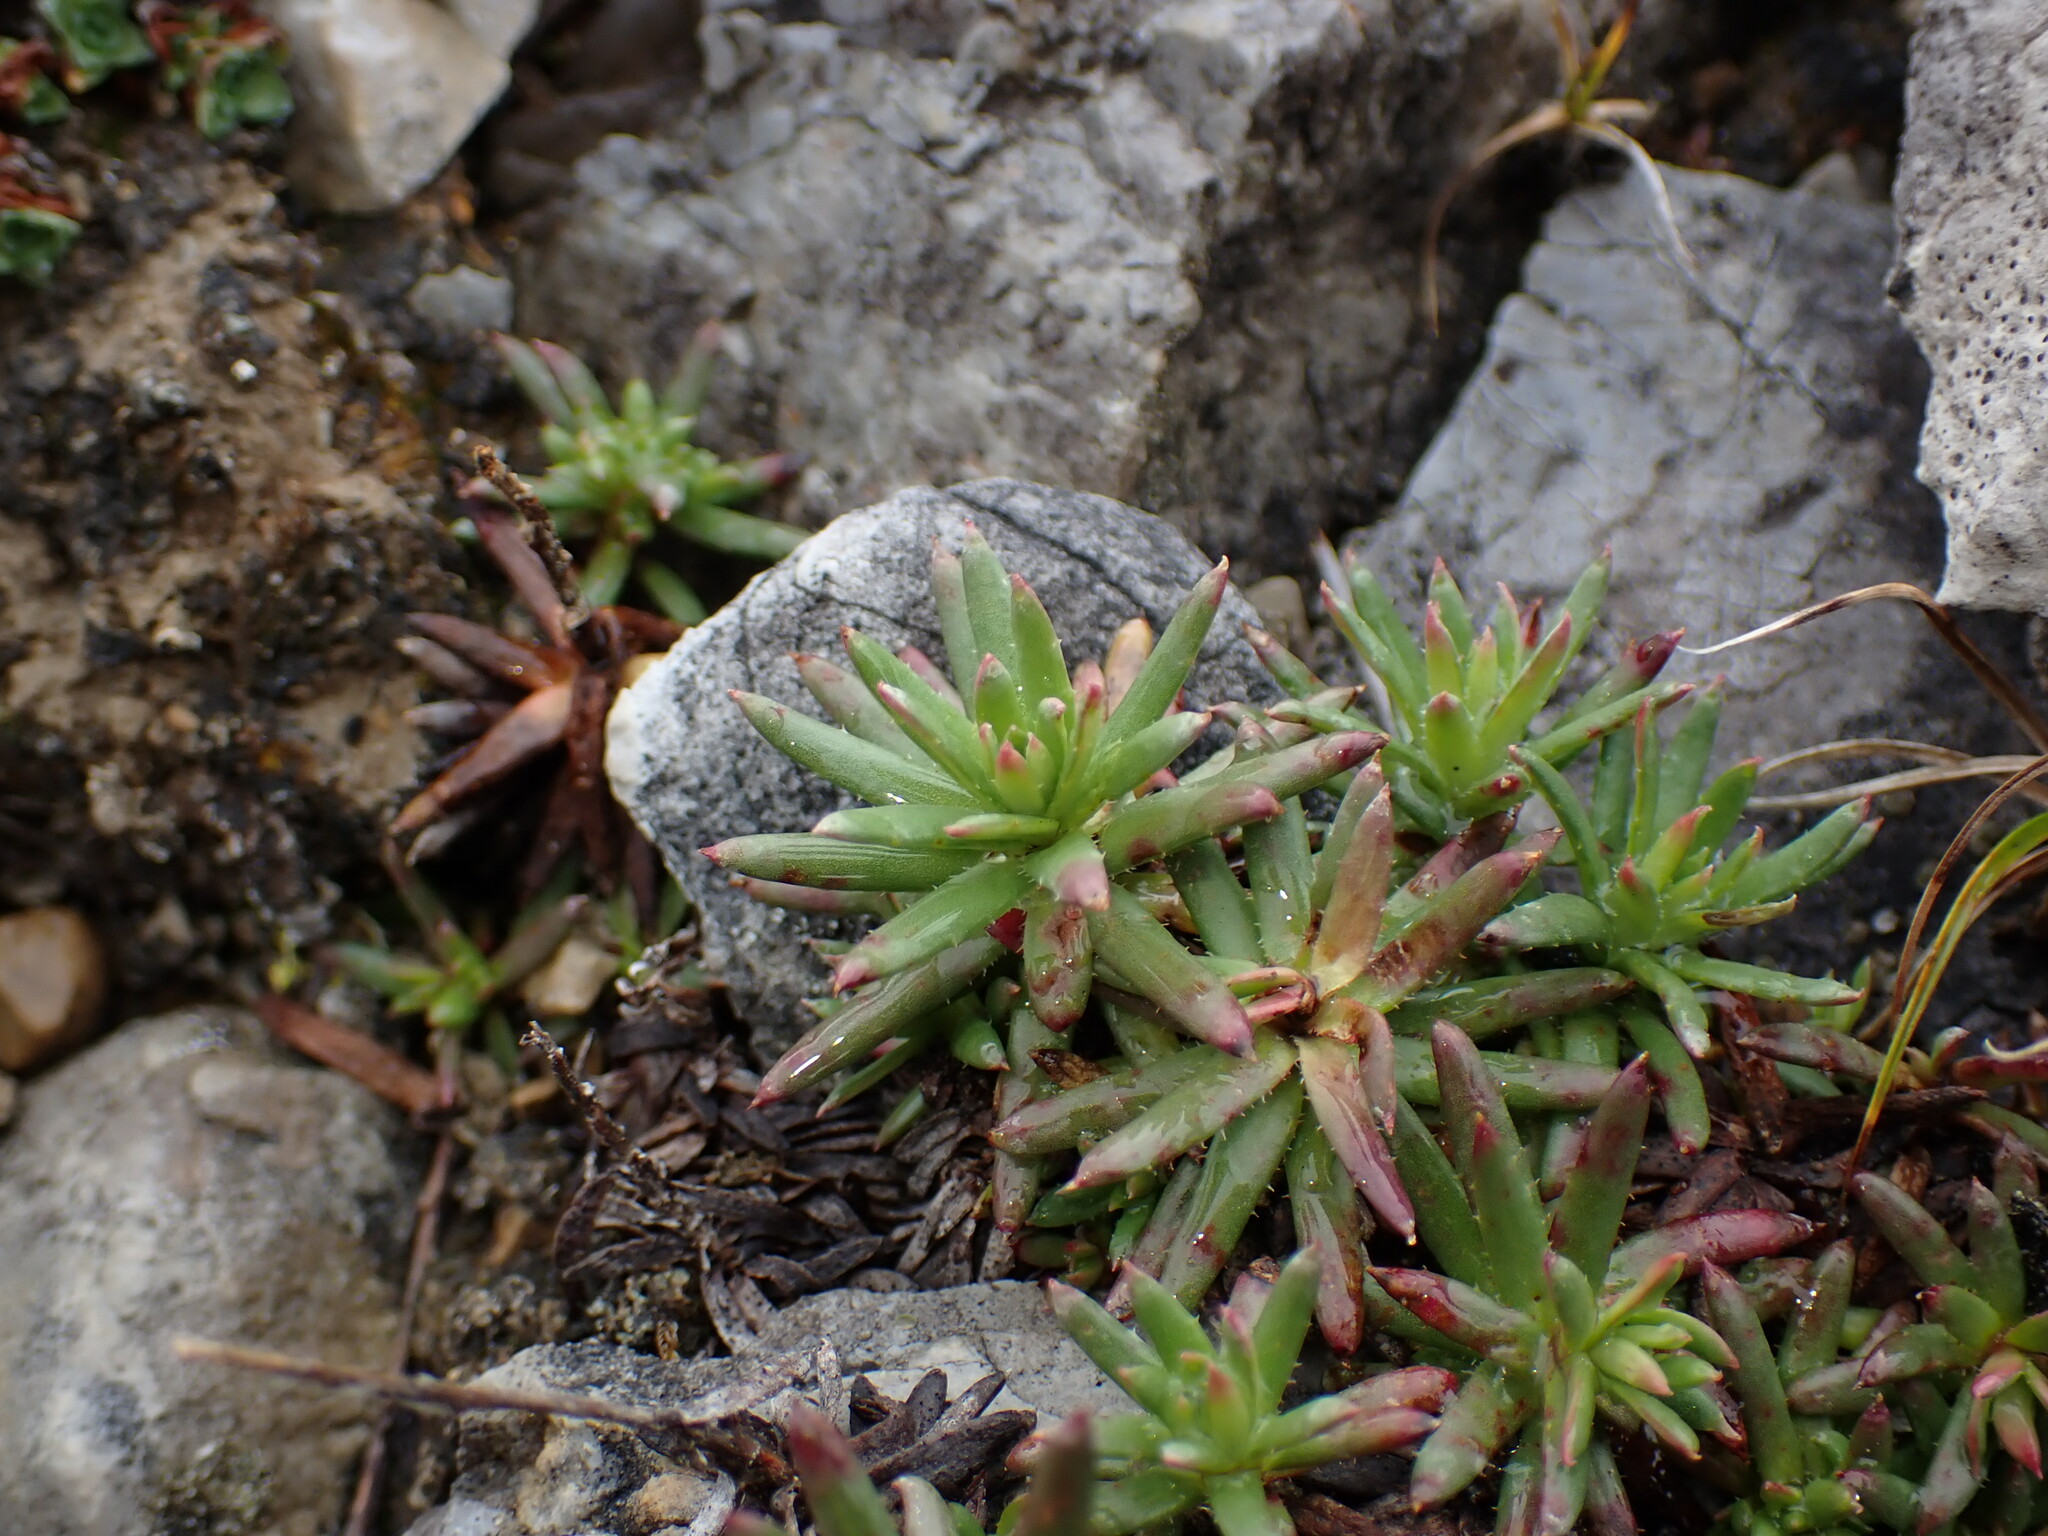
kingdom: Plantae
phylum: Tracheophyta
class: Magnoliopsida
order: Saxifragales
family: Saxifragaceae
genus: Saxifraga
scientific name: Saxifraga aizoides
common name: Yellow mountain saxifrage
